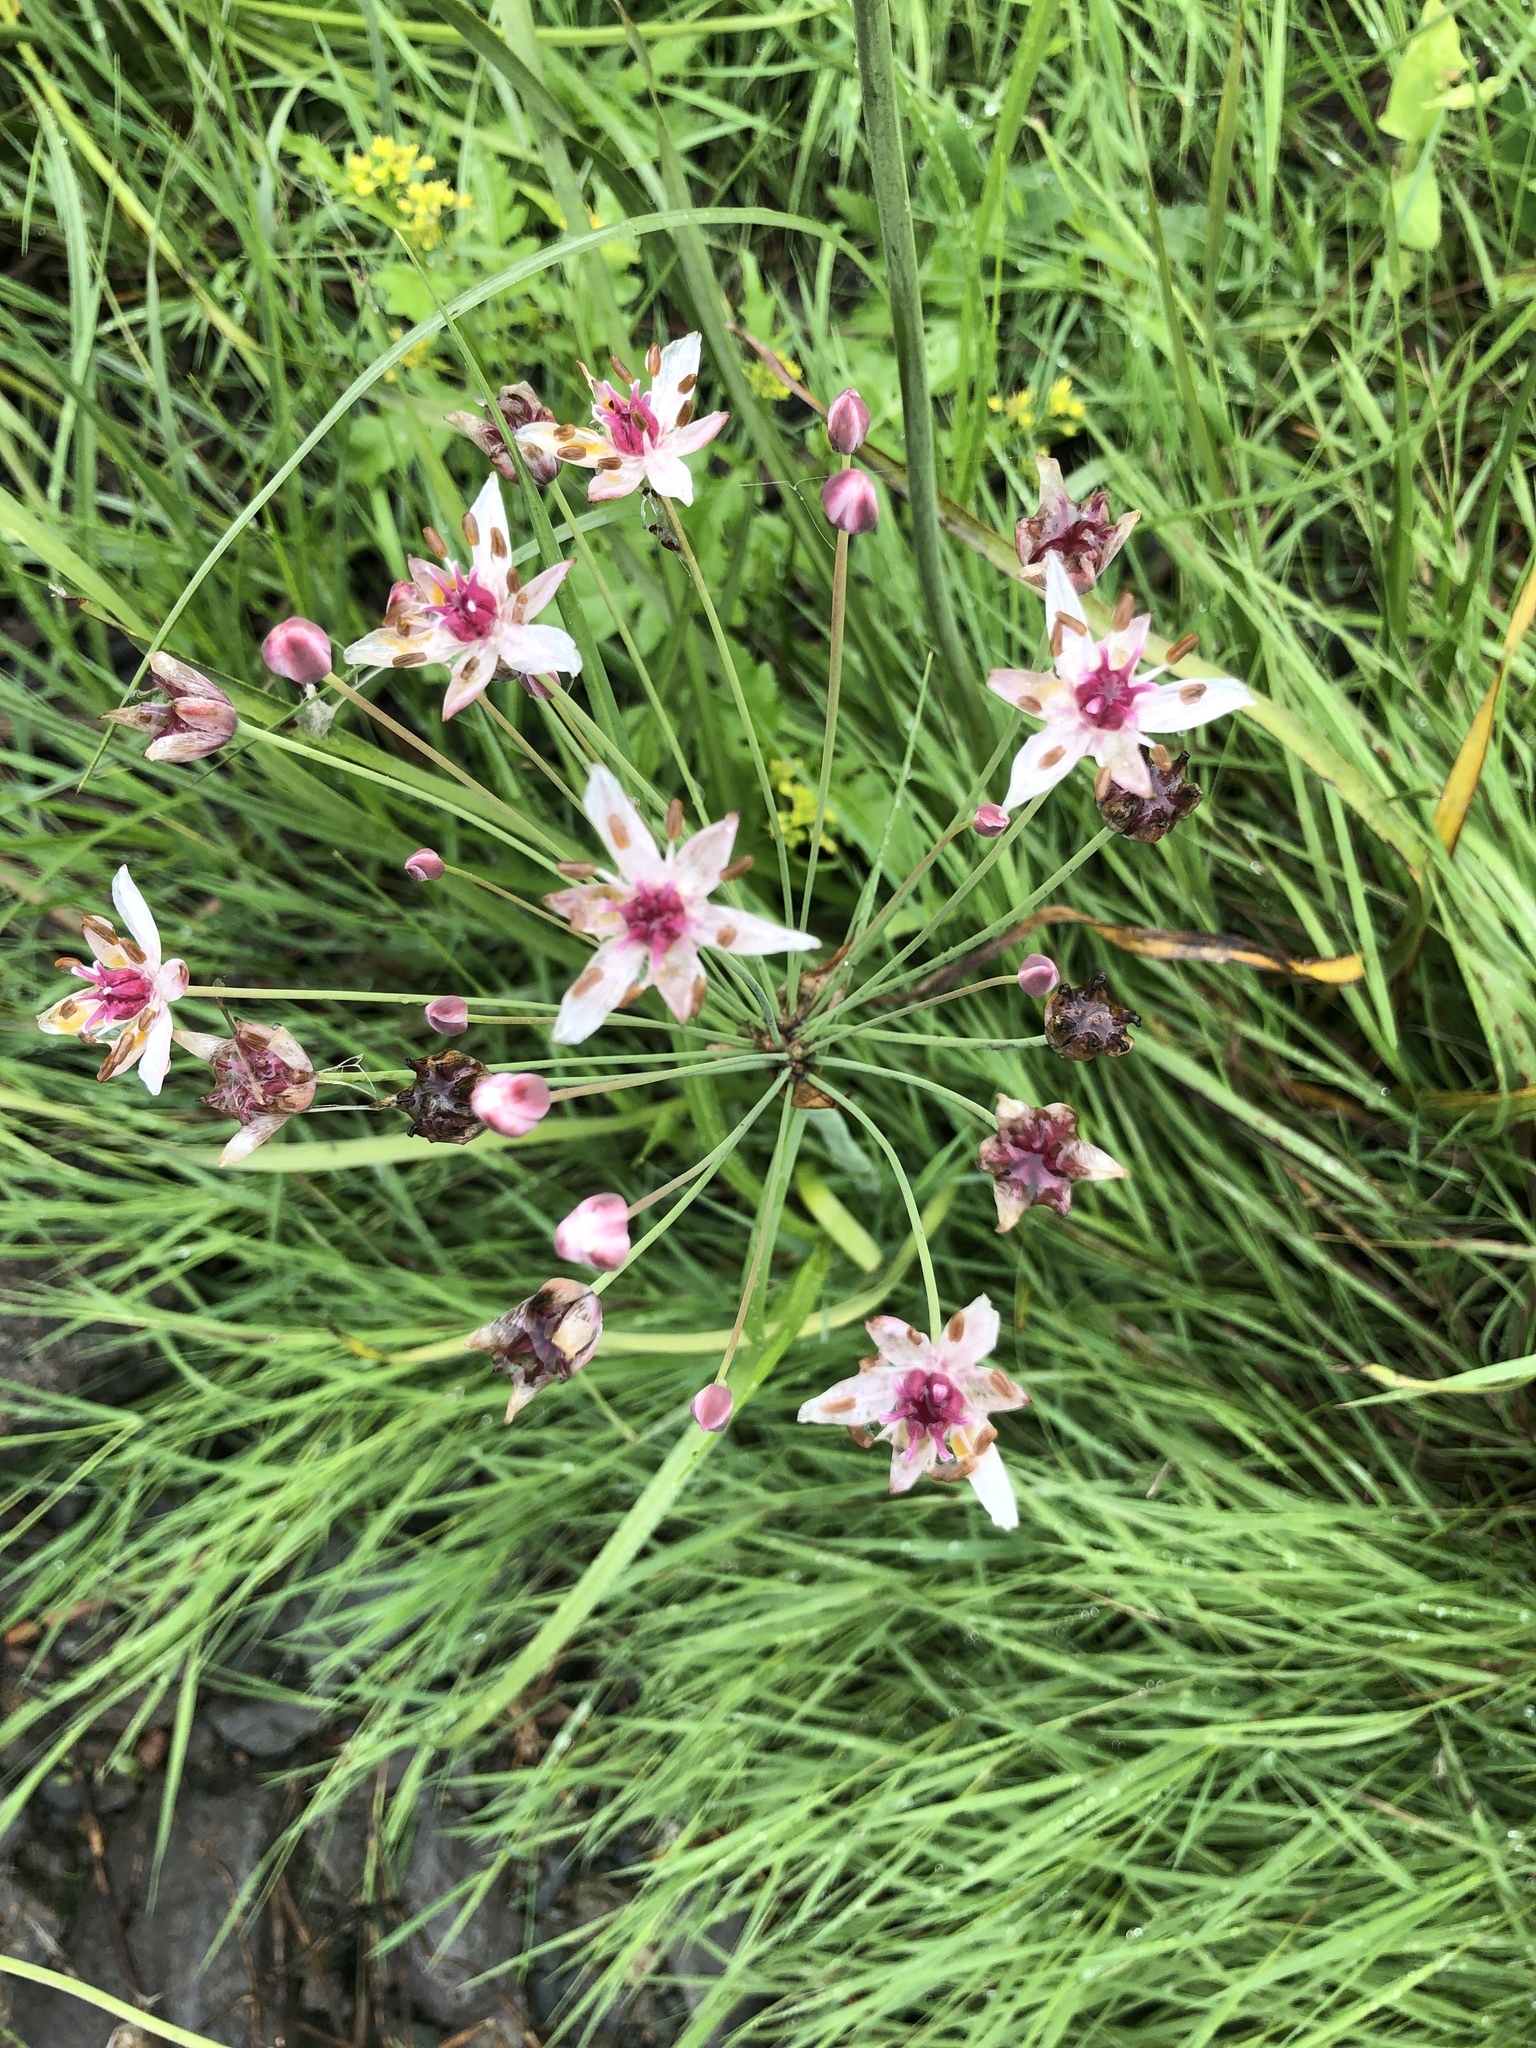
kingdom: Plantae
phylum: Tracheophyta
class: Liliopsida
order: Alismatales
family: Butomaceae
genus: Butomus
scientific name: Butomus umbellatus
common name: Flowering-rush
